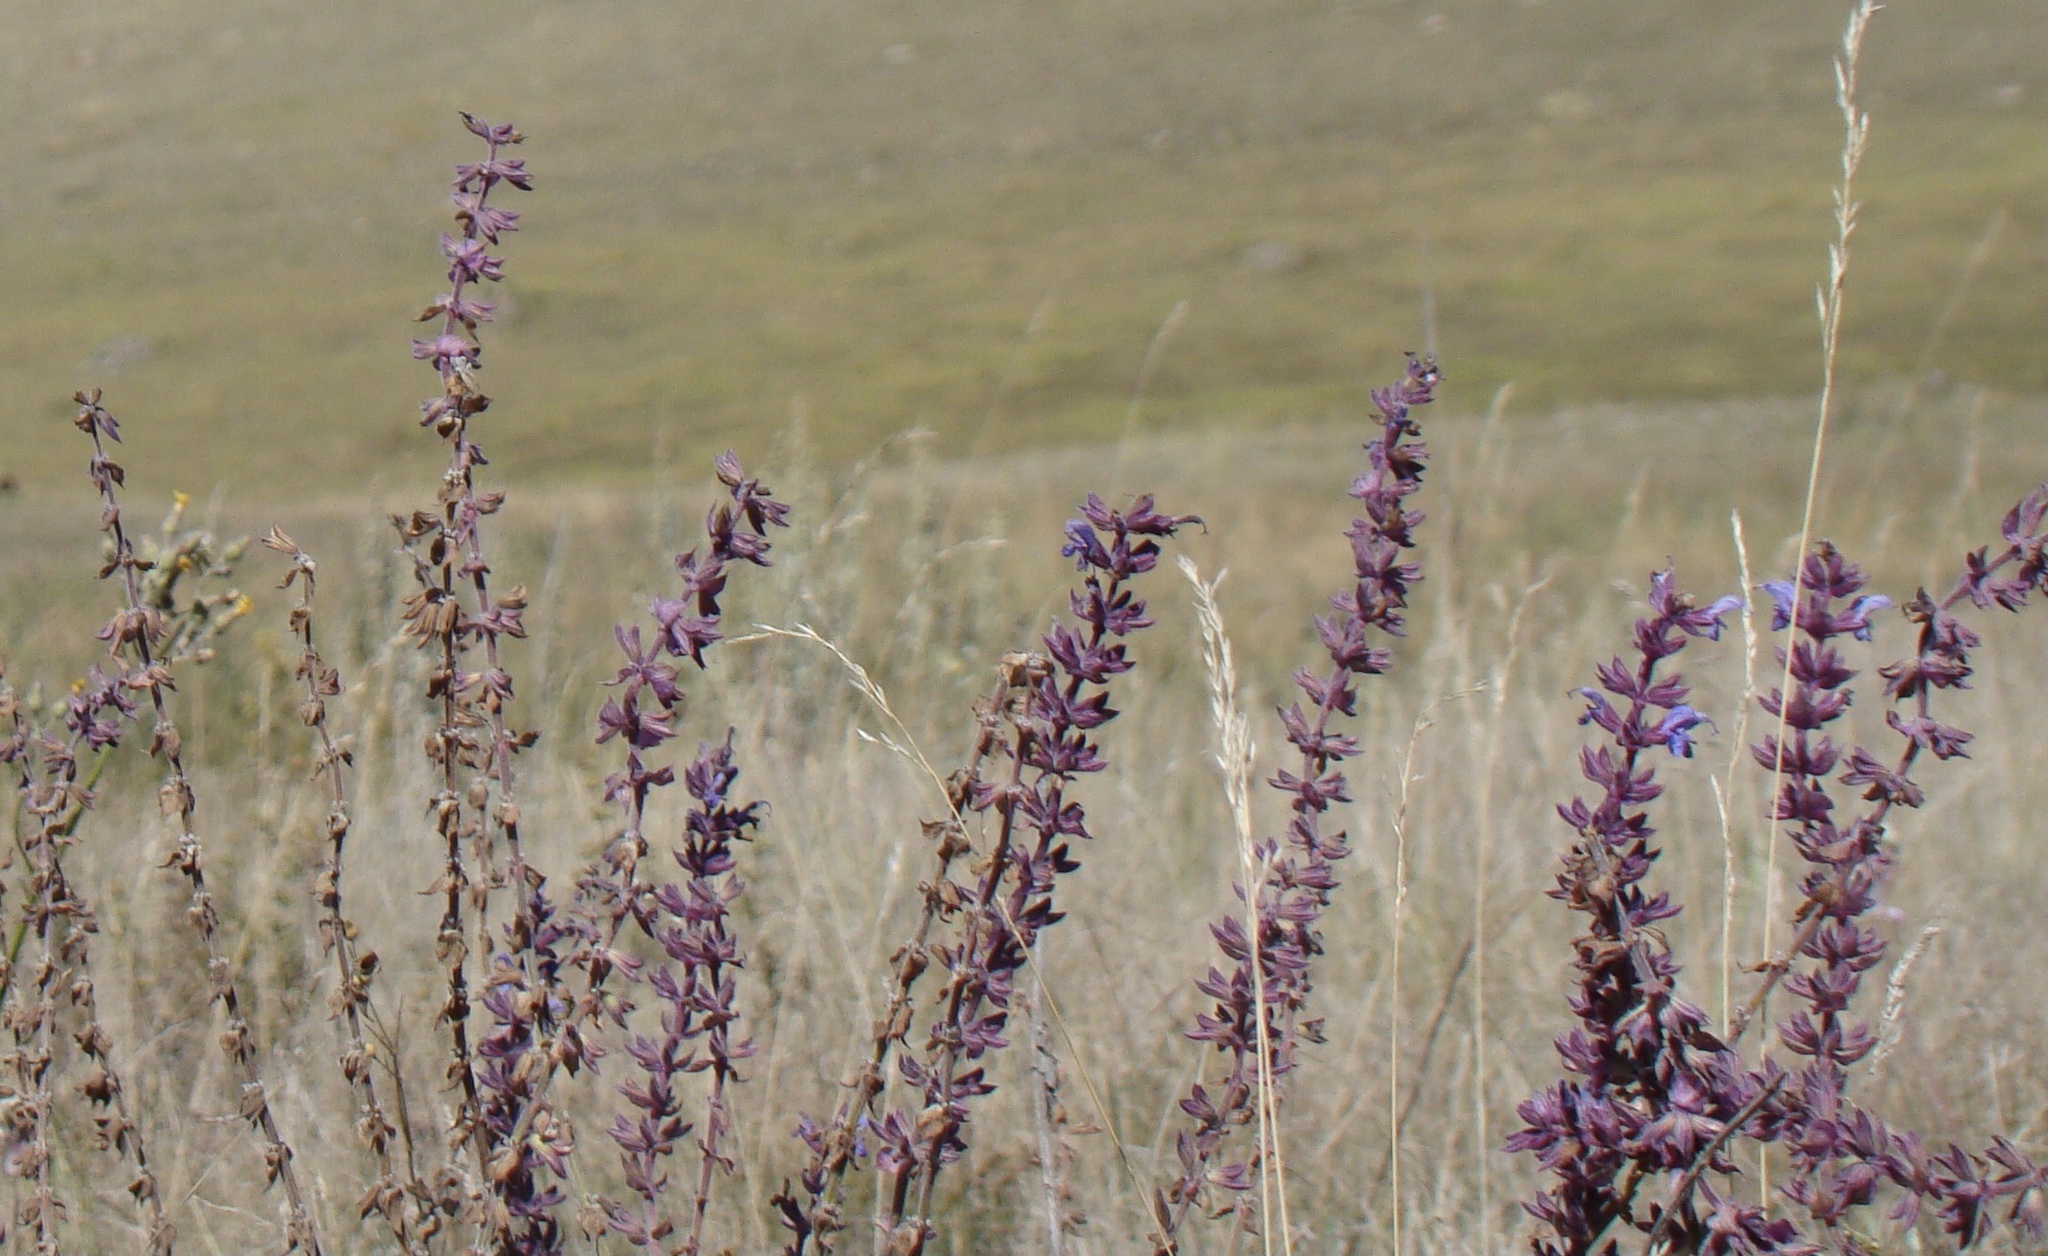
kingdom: Plantae
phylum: Tracheophyta
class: Magnoliopsida
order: Lamiales
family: Lamiaceae
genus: Salvia
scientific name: Salvia nemorosa
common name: Balkan clary
